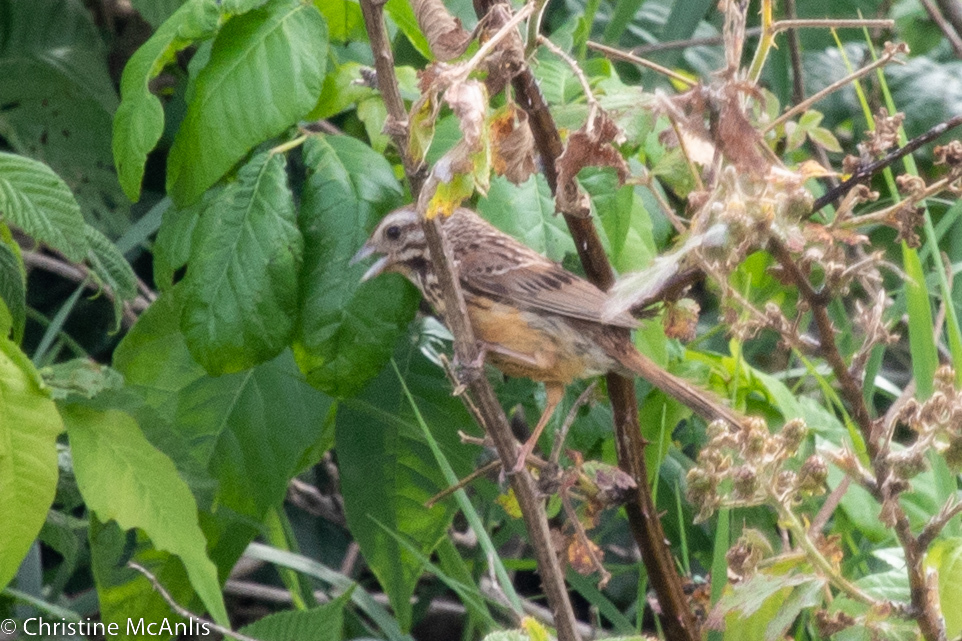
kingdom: Animalia
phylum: Chordata
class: Aves
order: Passeriformes
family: Passerellidae
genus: Melospiza
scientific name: Melospiza melodia
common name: Song sparrow
